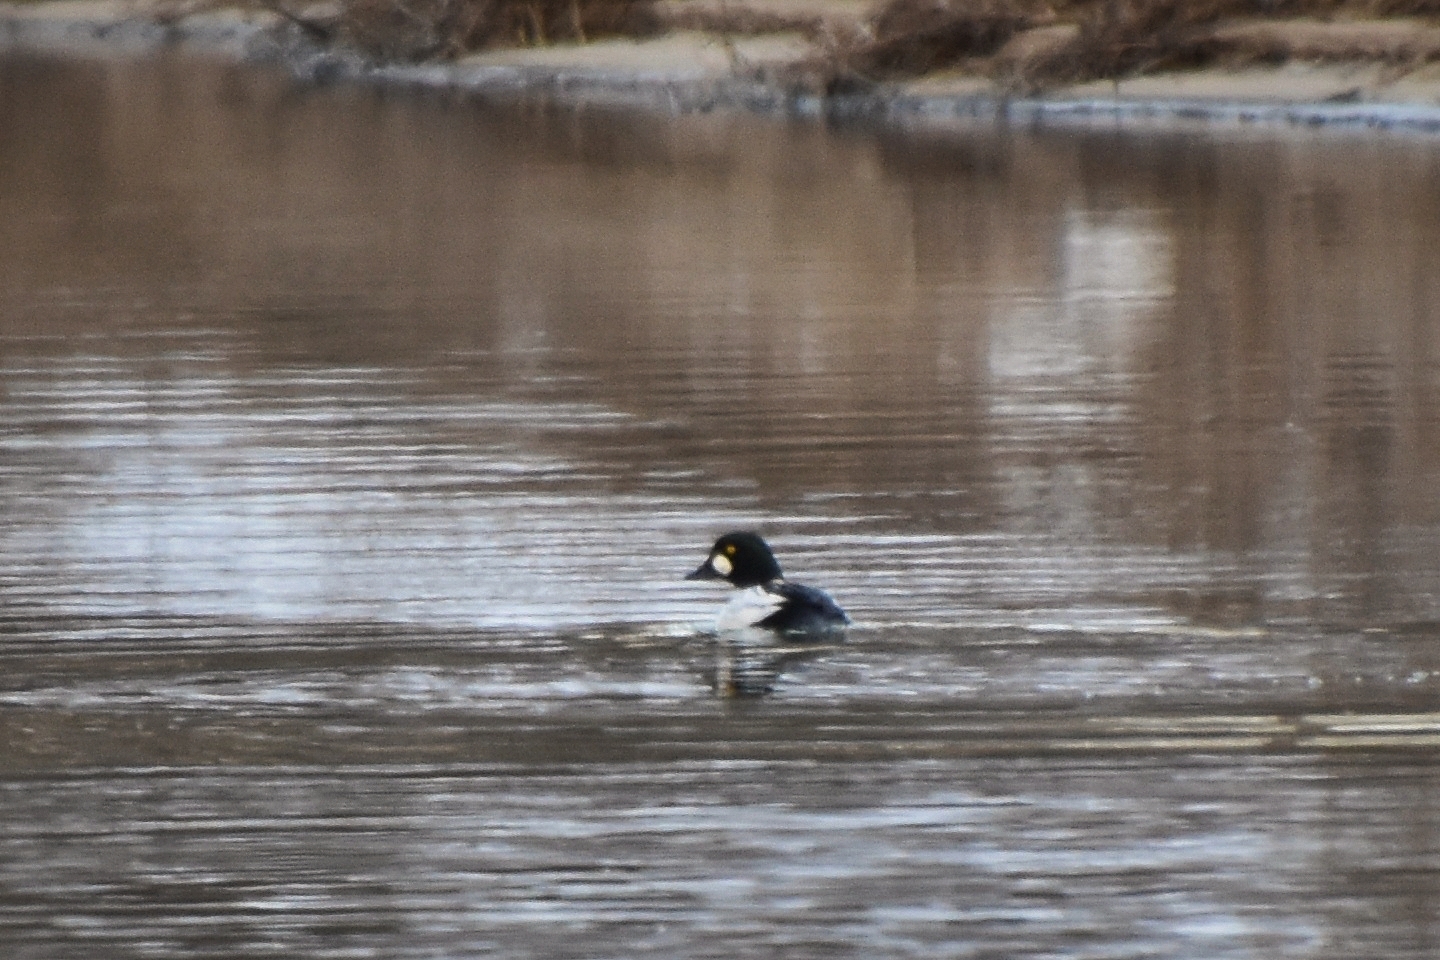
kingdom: Animalia
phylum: Chordata
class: Aves
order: Anseriformes
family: Anatidae
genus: Bucephala
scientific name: Bucephala clangula
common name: Common goldeneye
